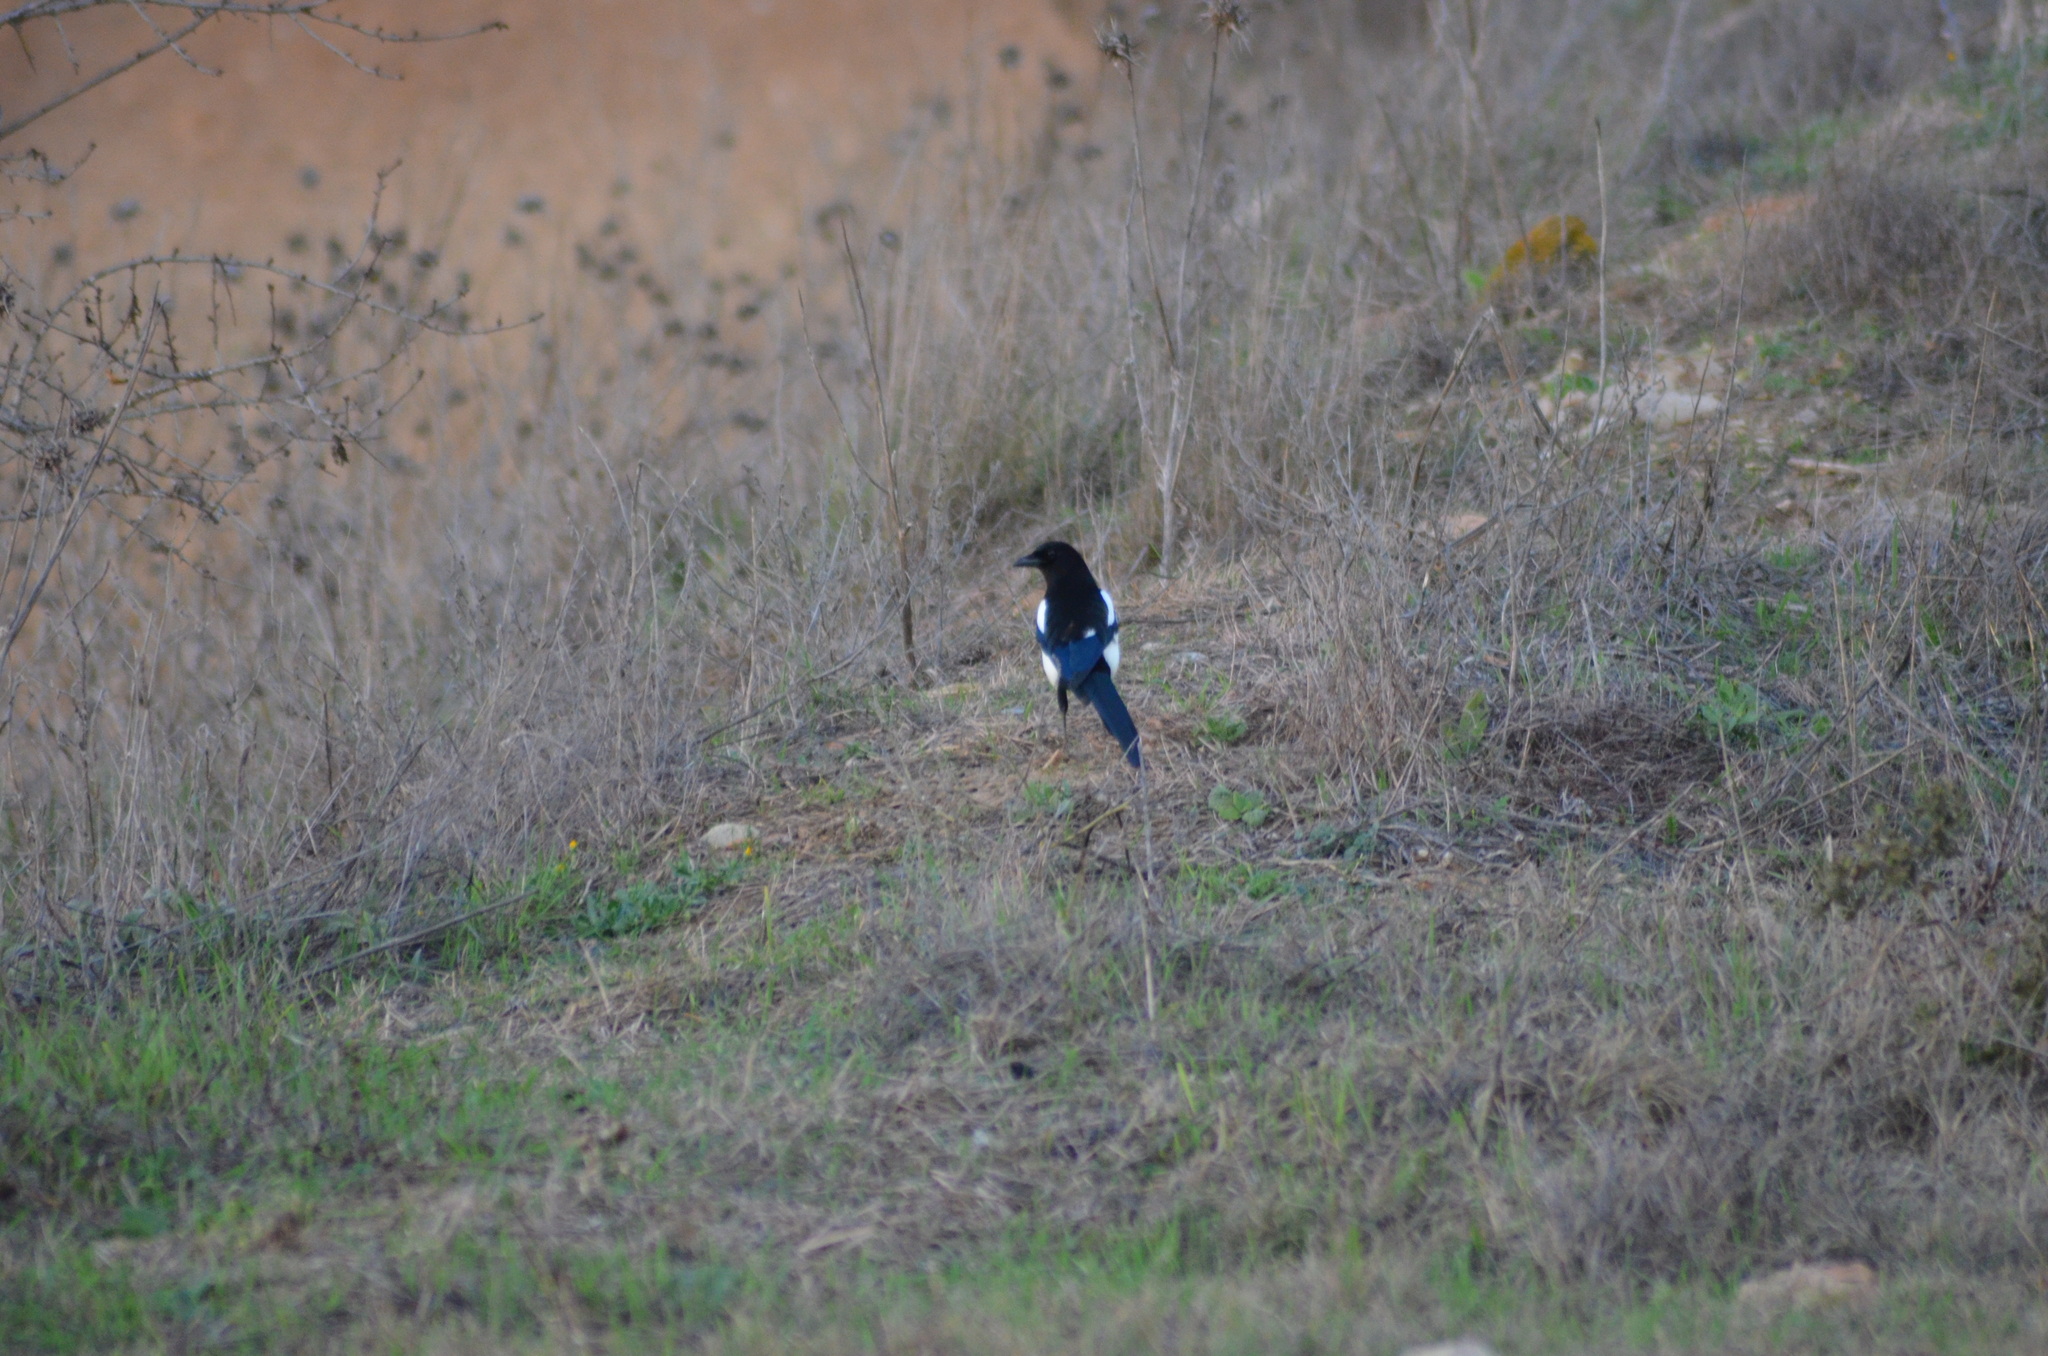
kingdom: Animalia
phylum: Chordata
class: Aves
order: Passeriformes
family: Corvidae
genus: Pica
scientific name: Pica pica
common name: Eurasian magpie
